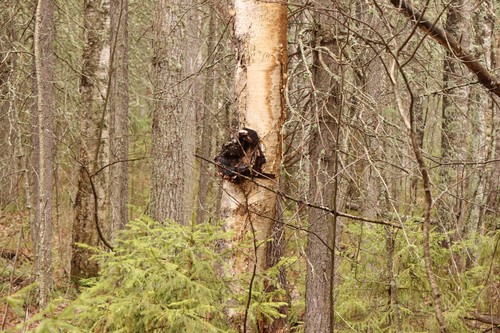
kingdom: Fungi
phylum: Basidiomycota
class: Agaricomycetes
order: Hymenochaetales
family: Hymenochaetaceae
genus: Inonotus
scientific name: Inonotus obliquus
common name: Chaga
